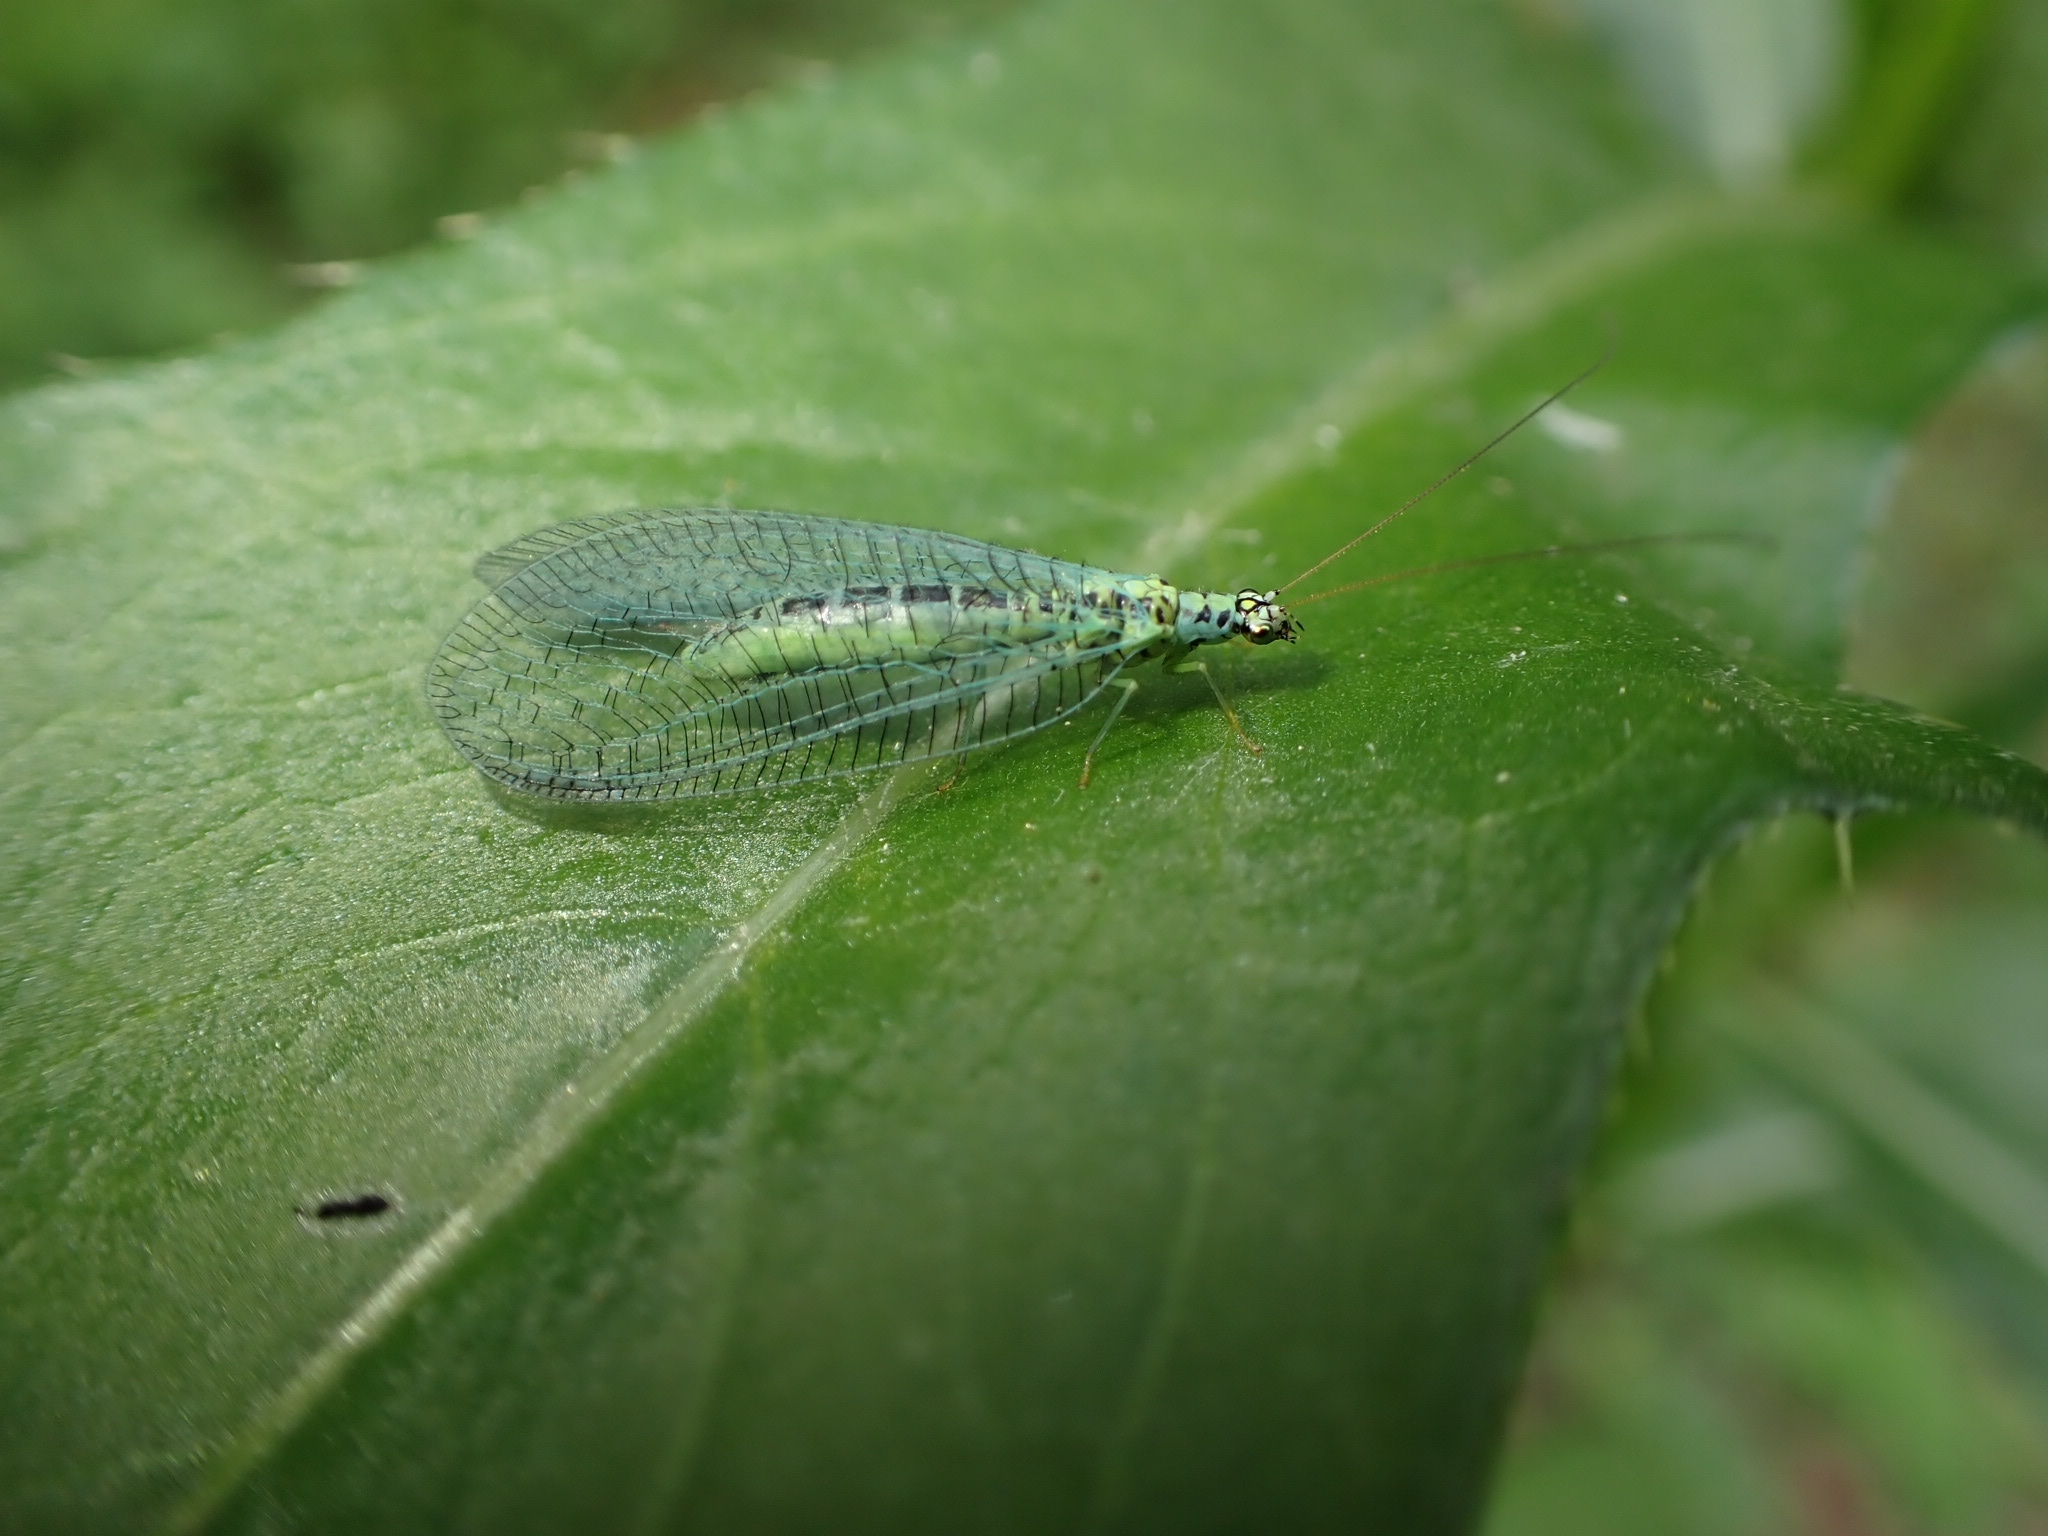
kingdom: Animalia
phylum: Arthropoda
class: Insecta
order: Neuroptera
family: Chrysopidae
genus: Chrysopa
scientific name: Chrysopa perla
